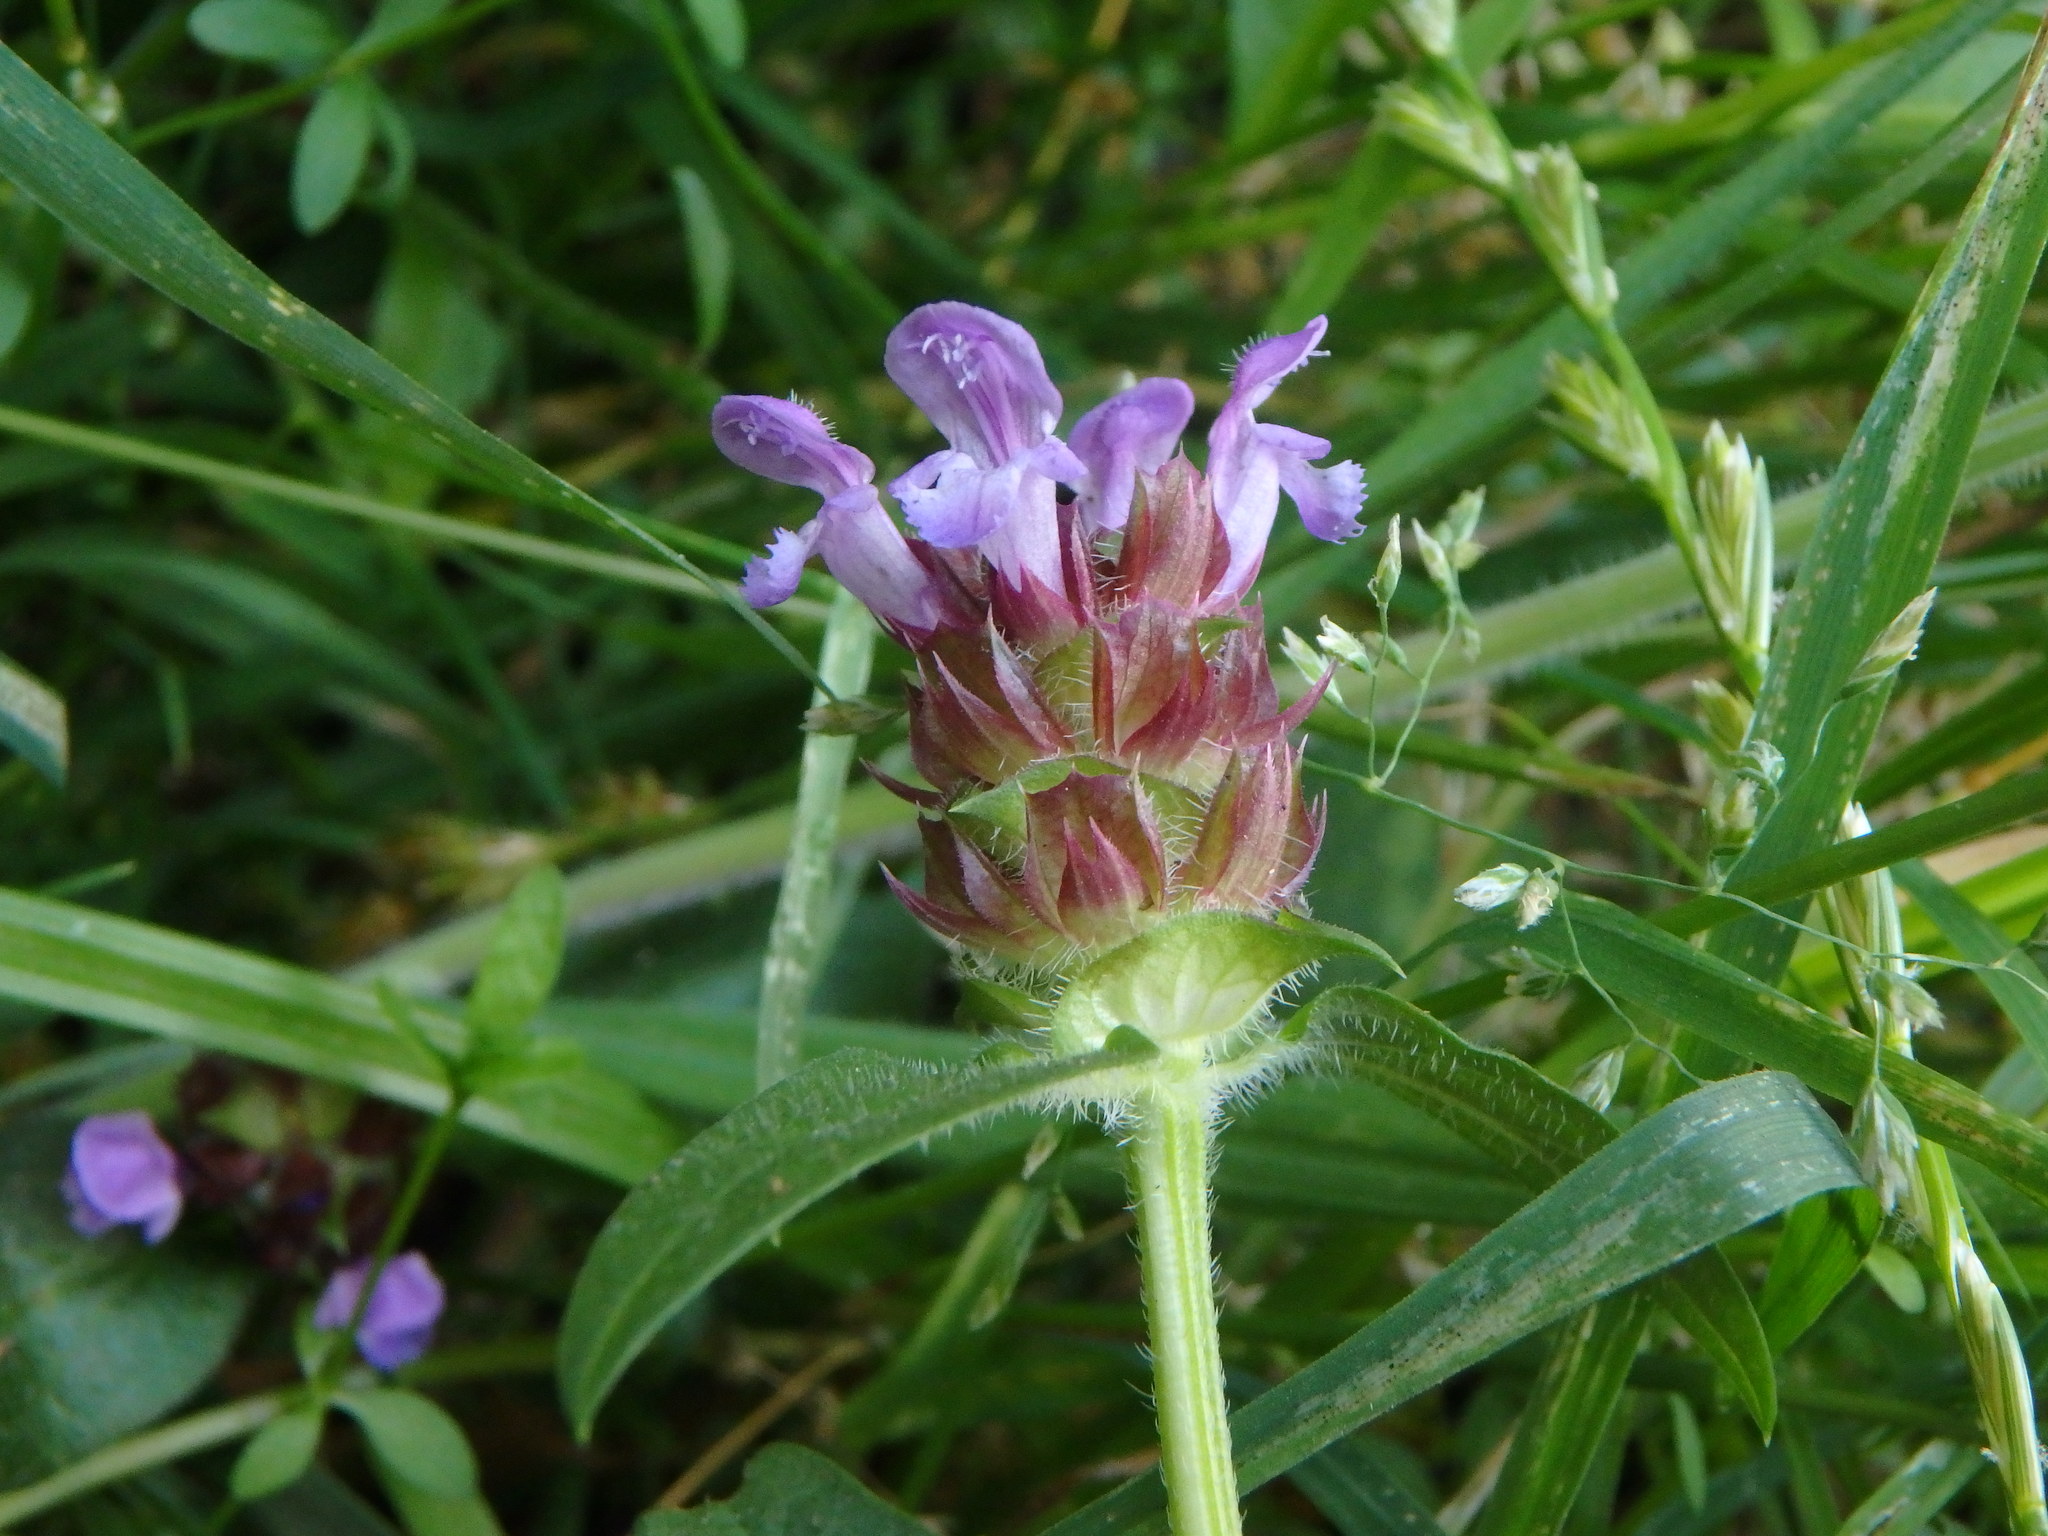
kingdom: Plantae
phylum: Tracheophyta
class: Magnoliopsida
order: Lamiales
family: Lamiaceae
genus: Prunella
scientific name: Prunella vulgaris
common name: Heal-all
